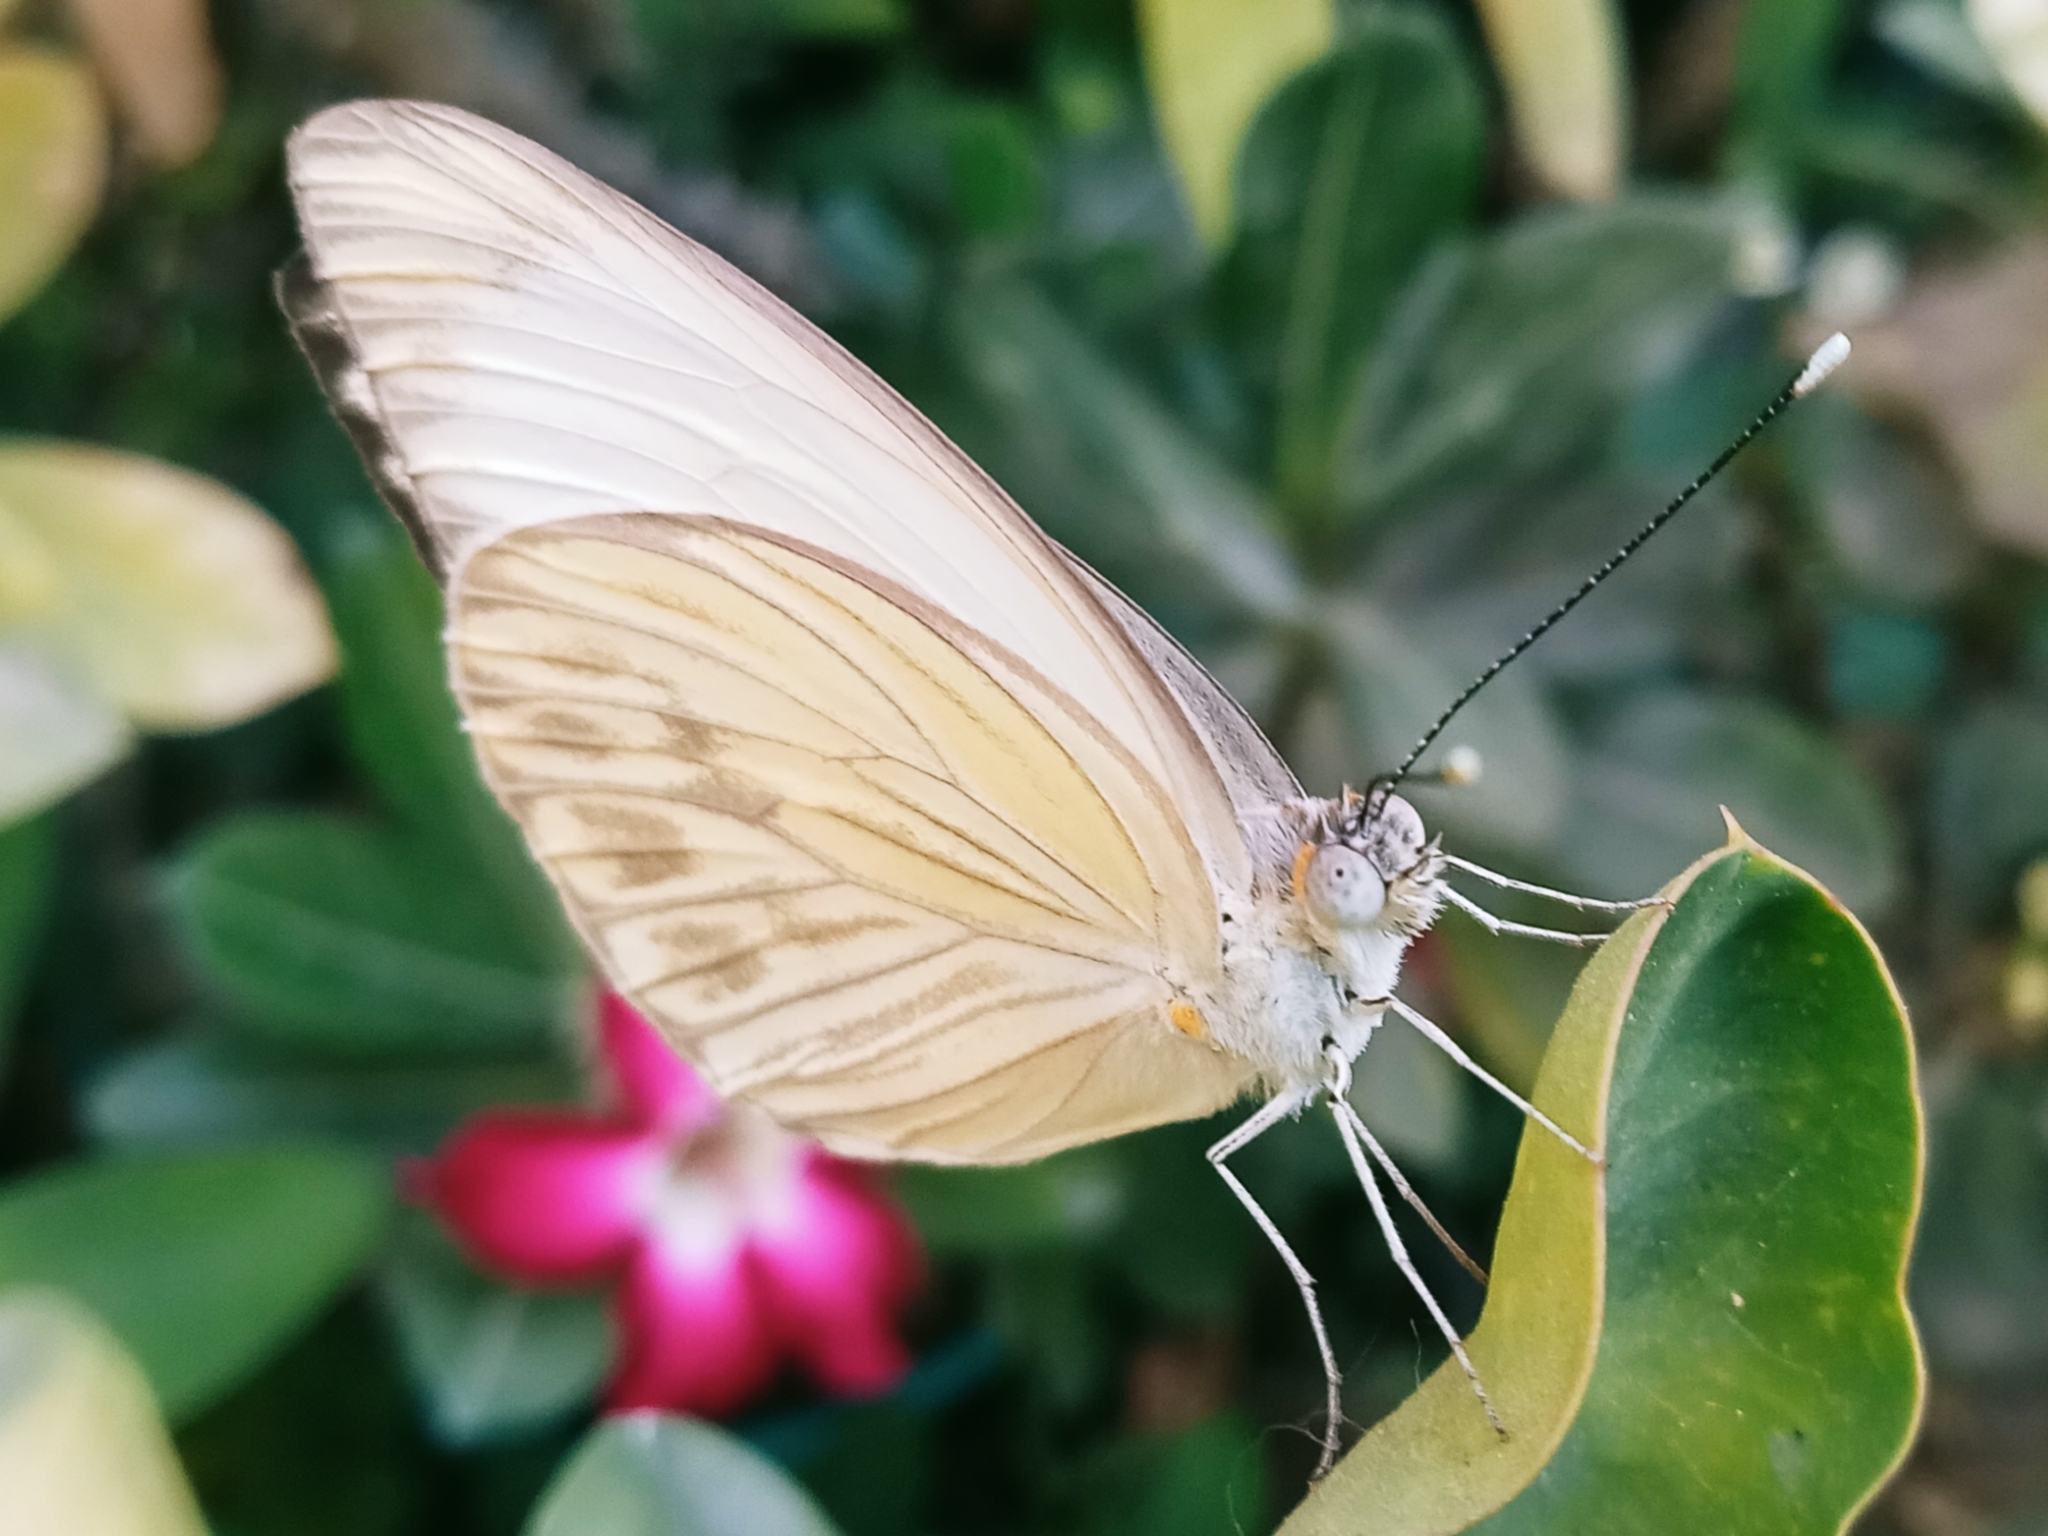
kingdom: Animalia
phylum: Arthropoda
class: Insecta
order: Lepidoptera
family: Pieridae
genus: Ascia
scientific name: Ascia monuste
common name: Great southern white
